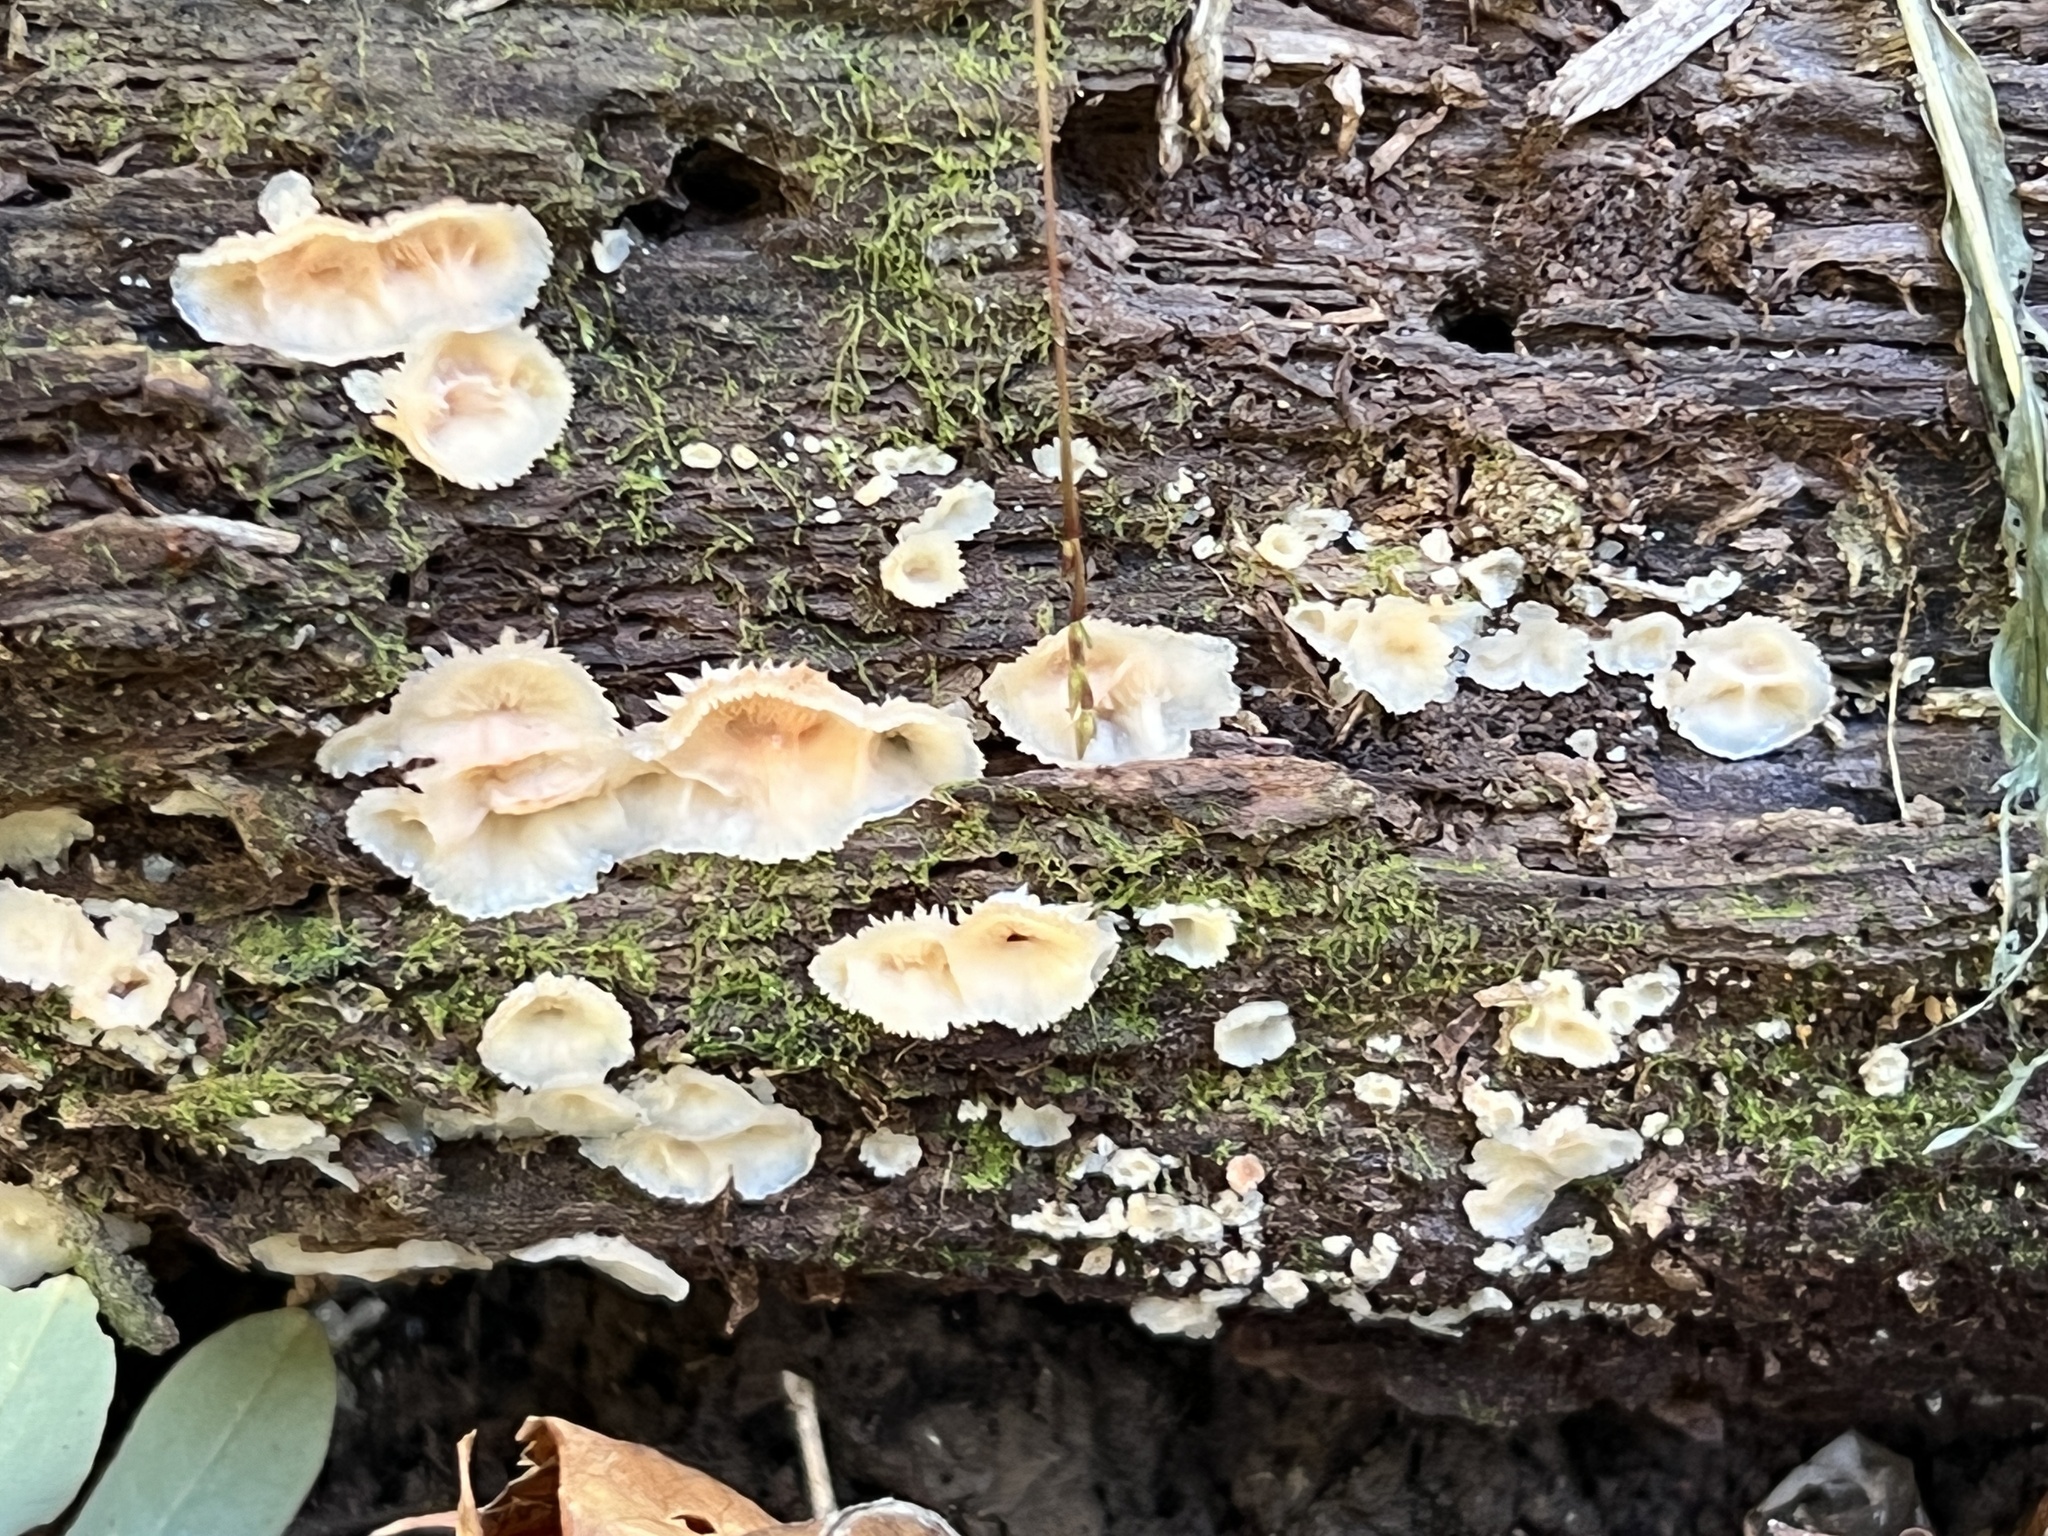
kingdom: Fungi
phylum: Basidiomycota
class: Agaricomycetes
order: Polyporales
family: Meruliaceae
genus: Phlebia
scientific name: Phlebia tremellosa
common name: Jelly rot
